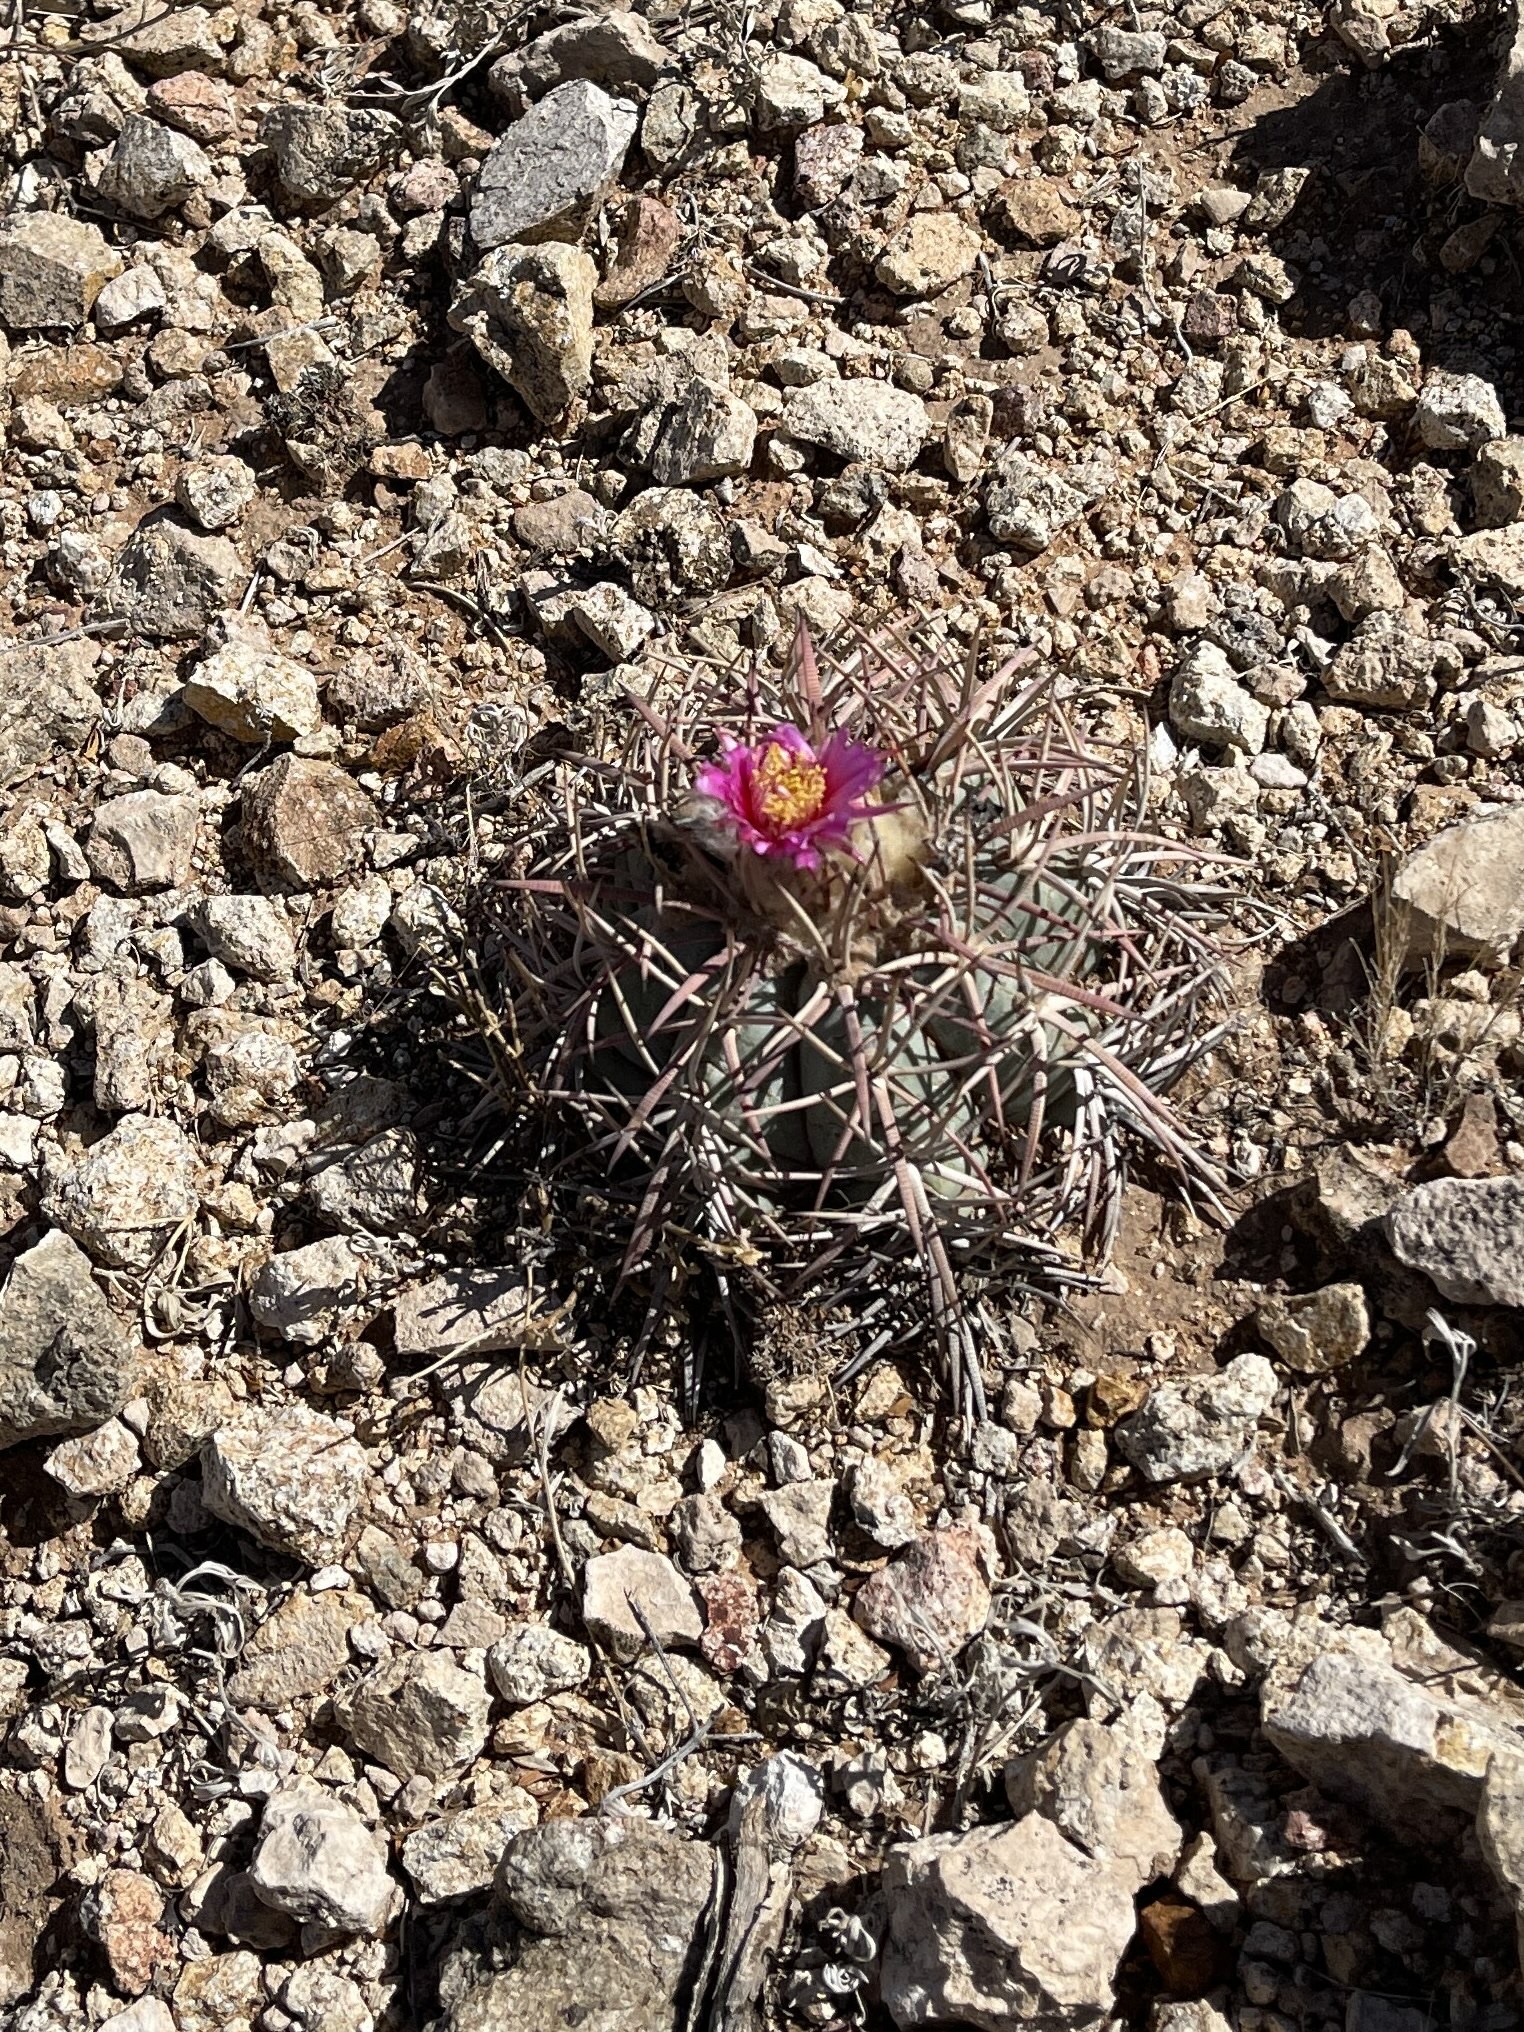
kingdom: Plantae
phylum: Tracheophyta
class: Magnoliopsida
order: Caryophyllales
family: Cactaceae
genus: Echinocactus
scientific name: Echinocactus horizonthalonius
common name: Devilshead
